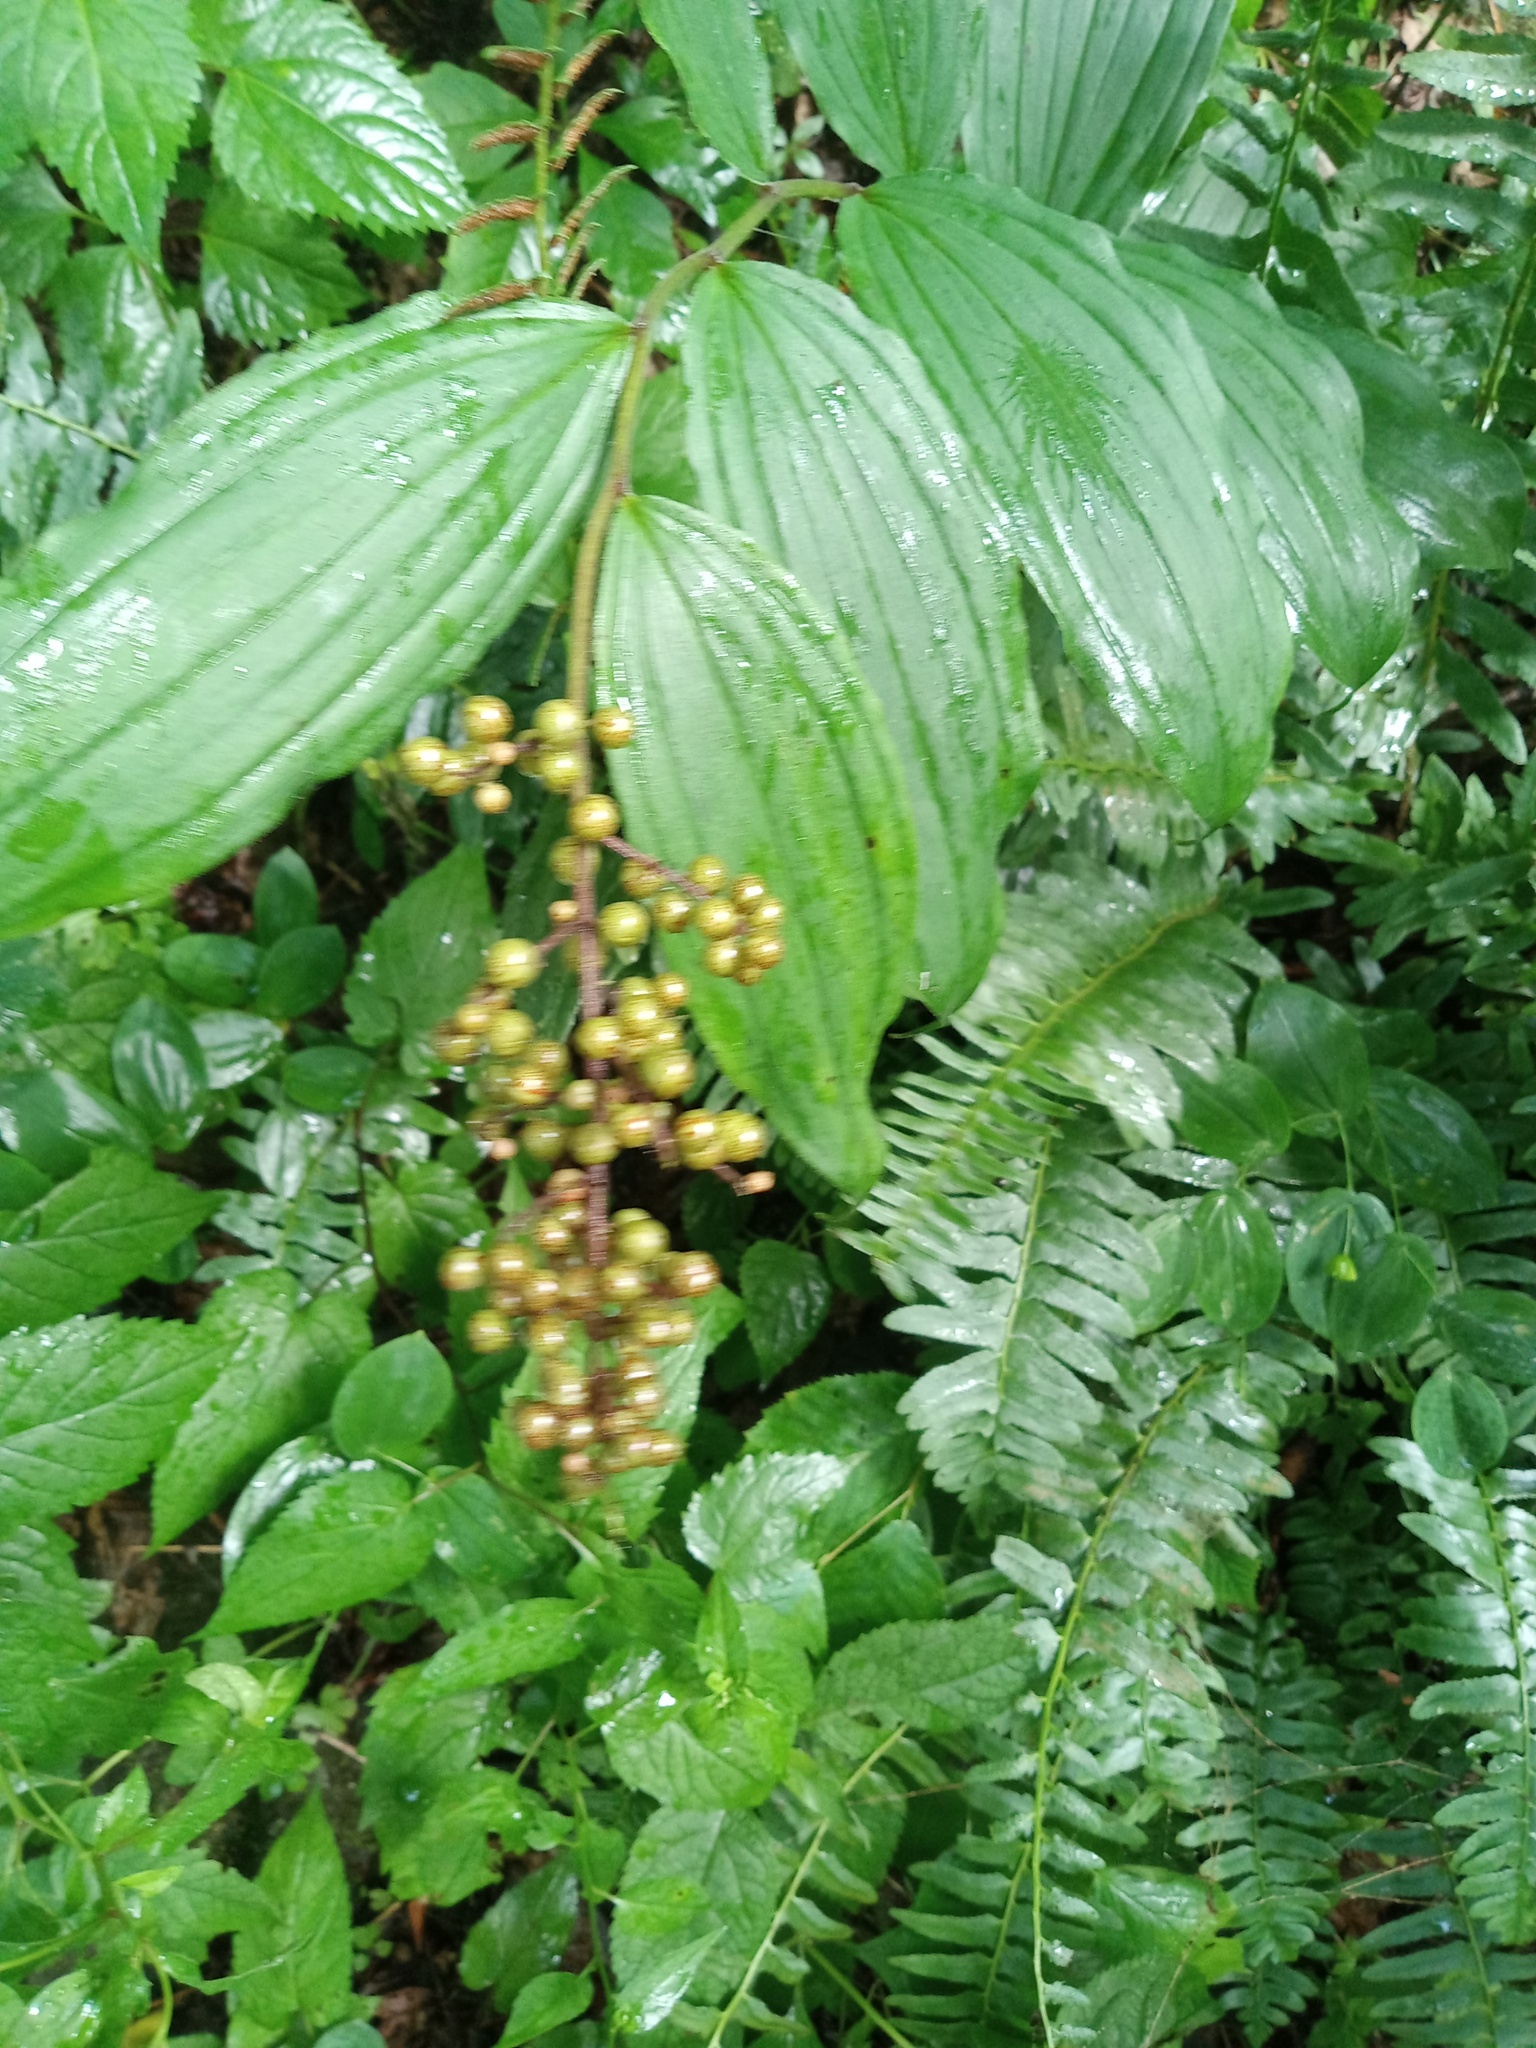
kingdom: Plantae
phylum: Tracheophyta
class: Liliopsida
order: Asparagales
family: Asparagaceae
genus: Maianthemum
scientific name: Maianthemum racemosum
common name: False spikenard
